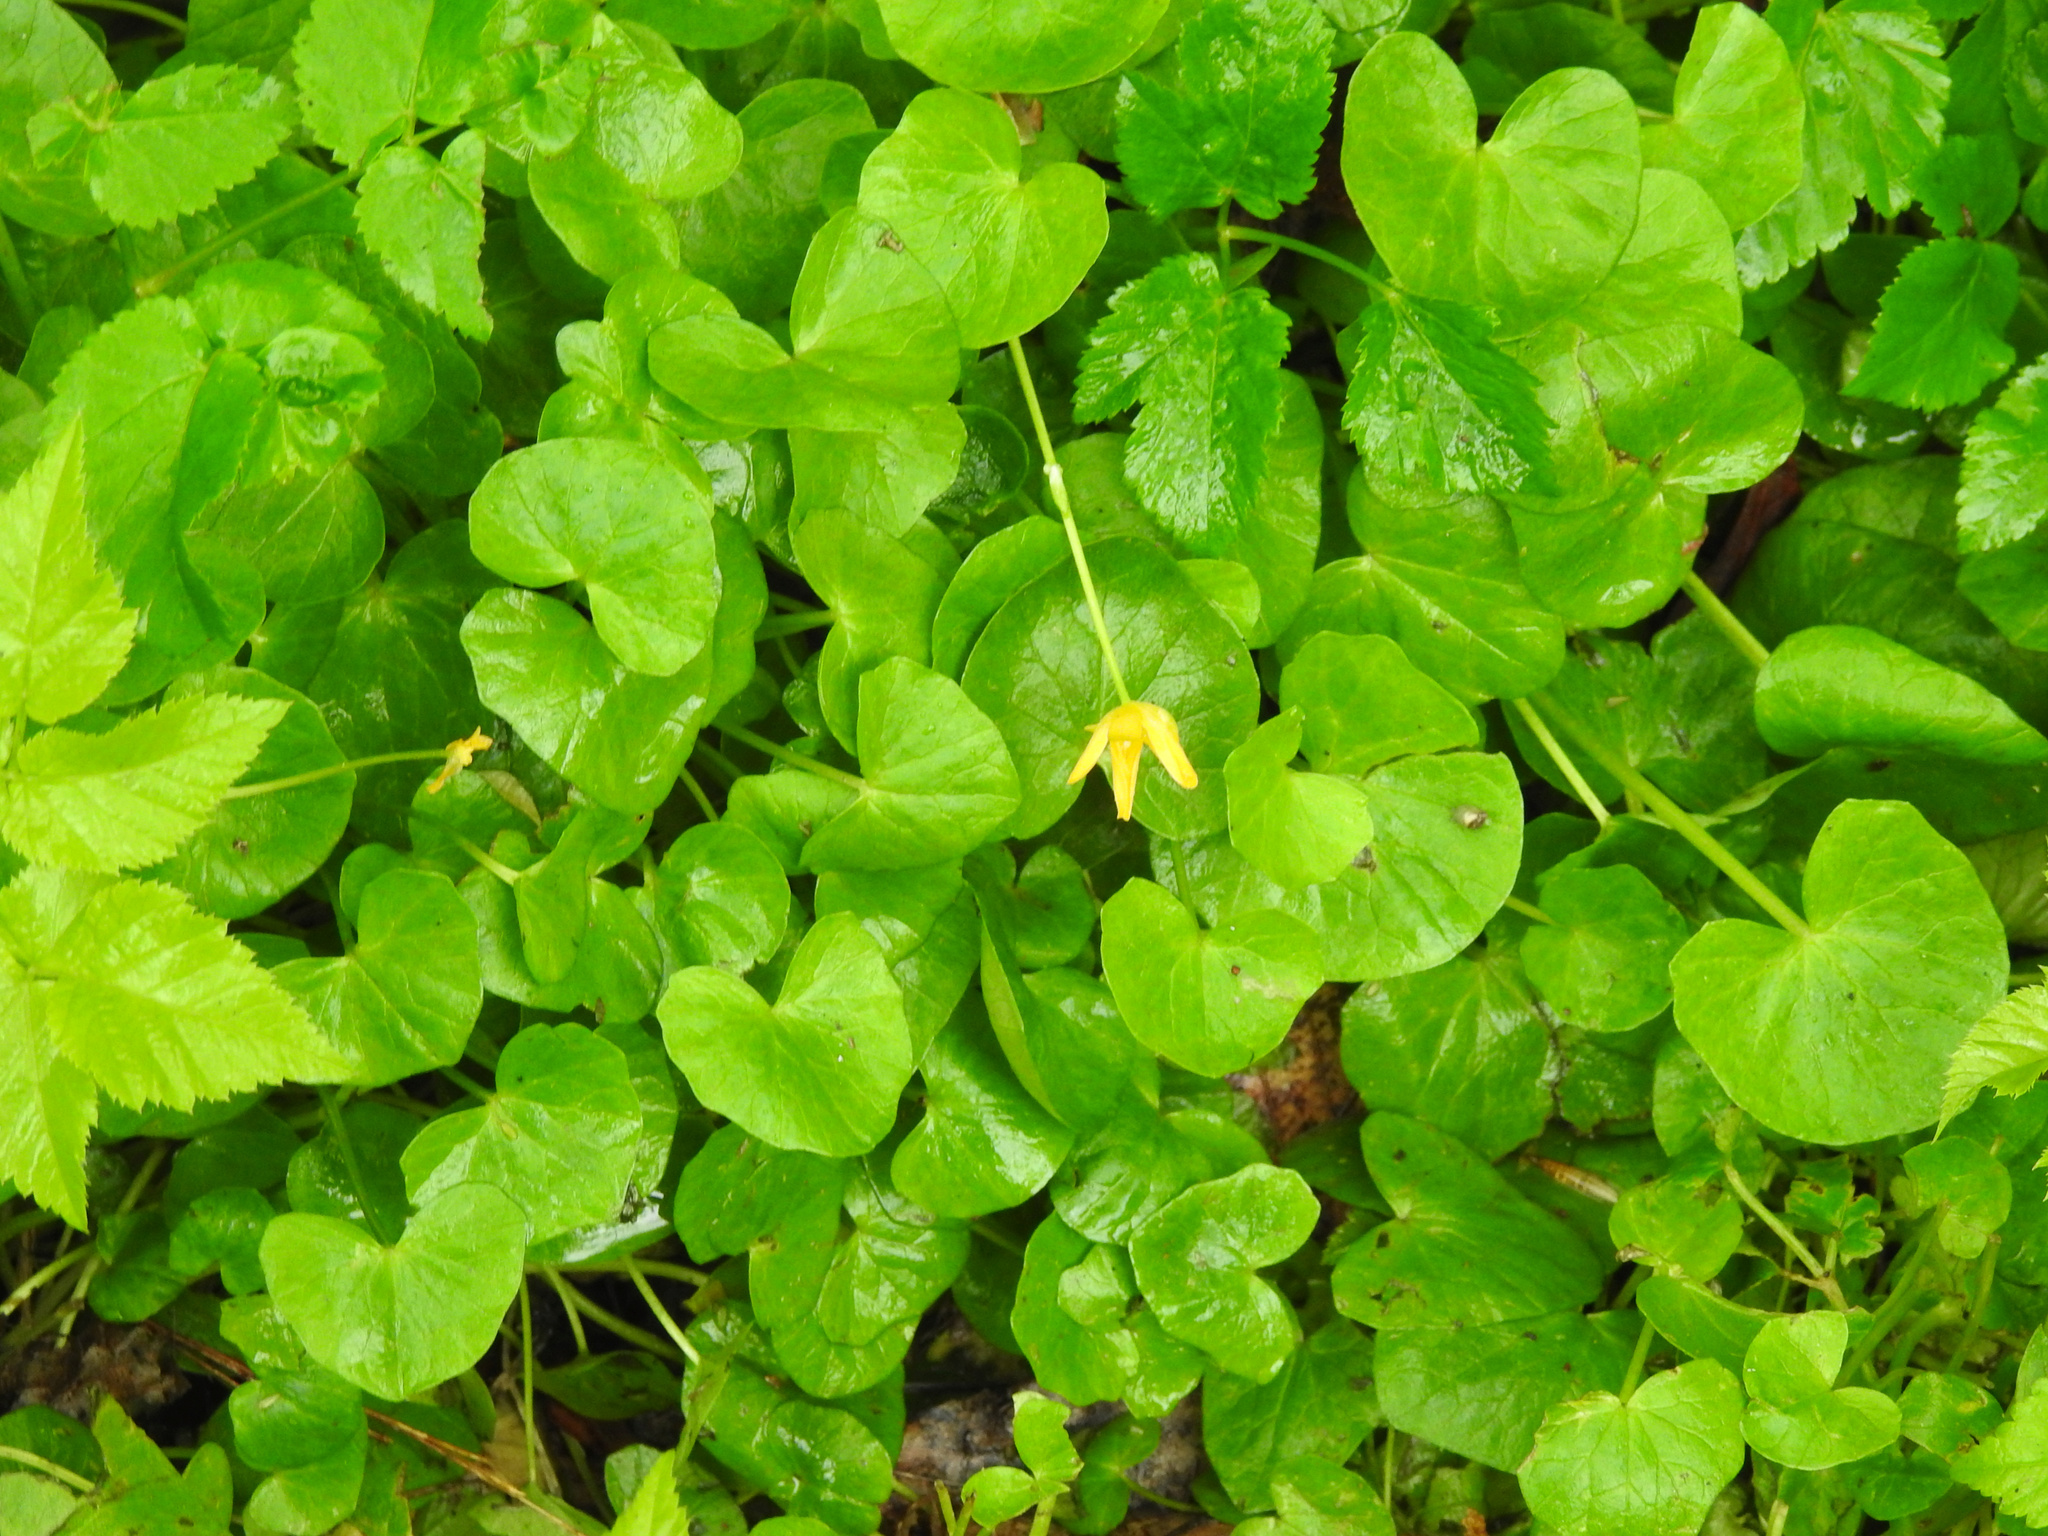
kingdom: Plantae
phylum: Tracheophyta
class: Magnoliopsida
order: Ranunculales
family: Ranunculaceae
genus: Ficaria
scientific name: Ficaria verna
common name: Lesser celandine
